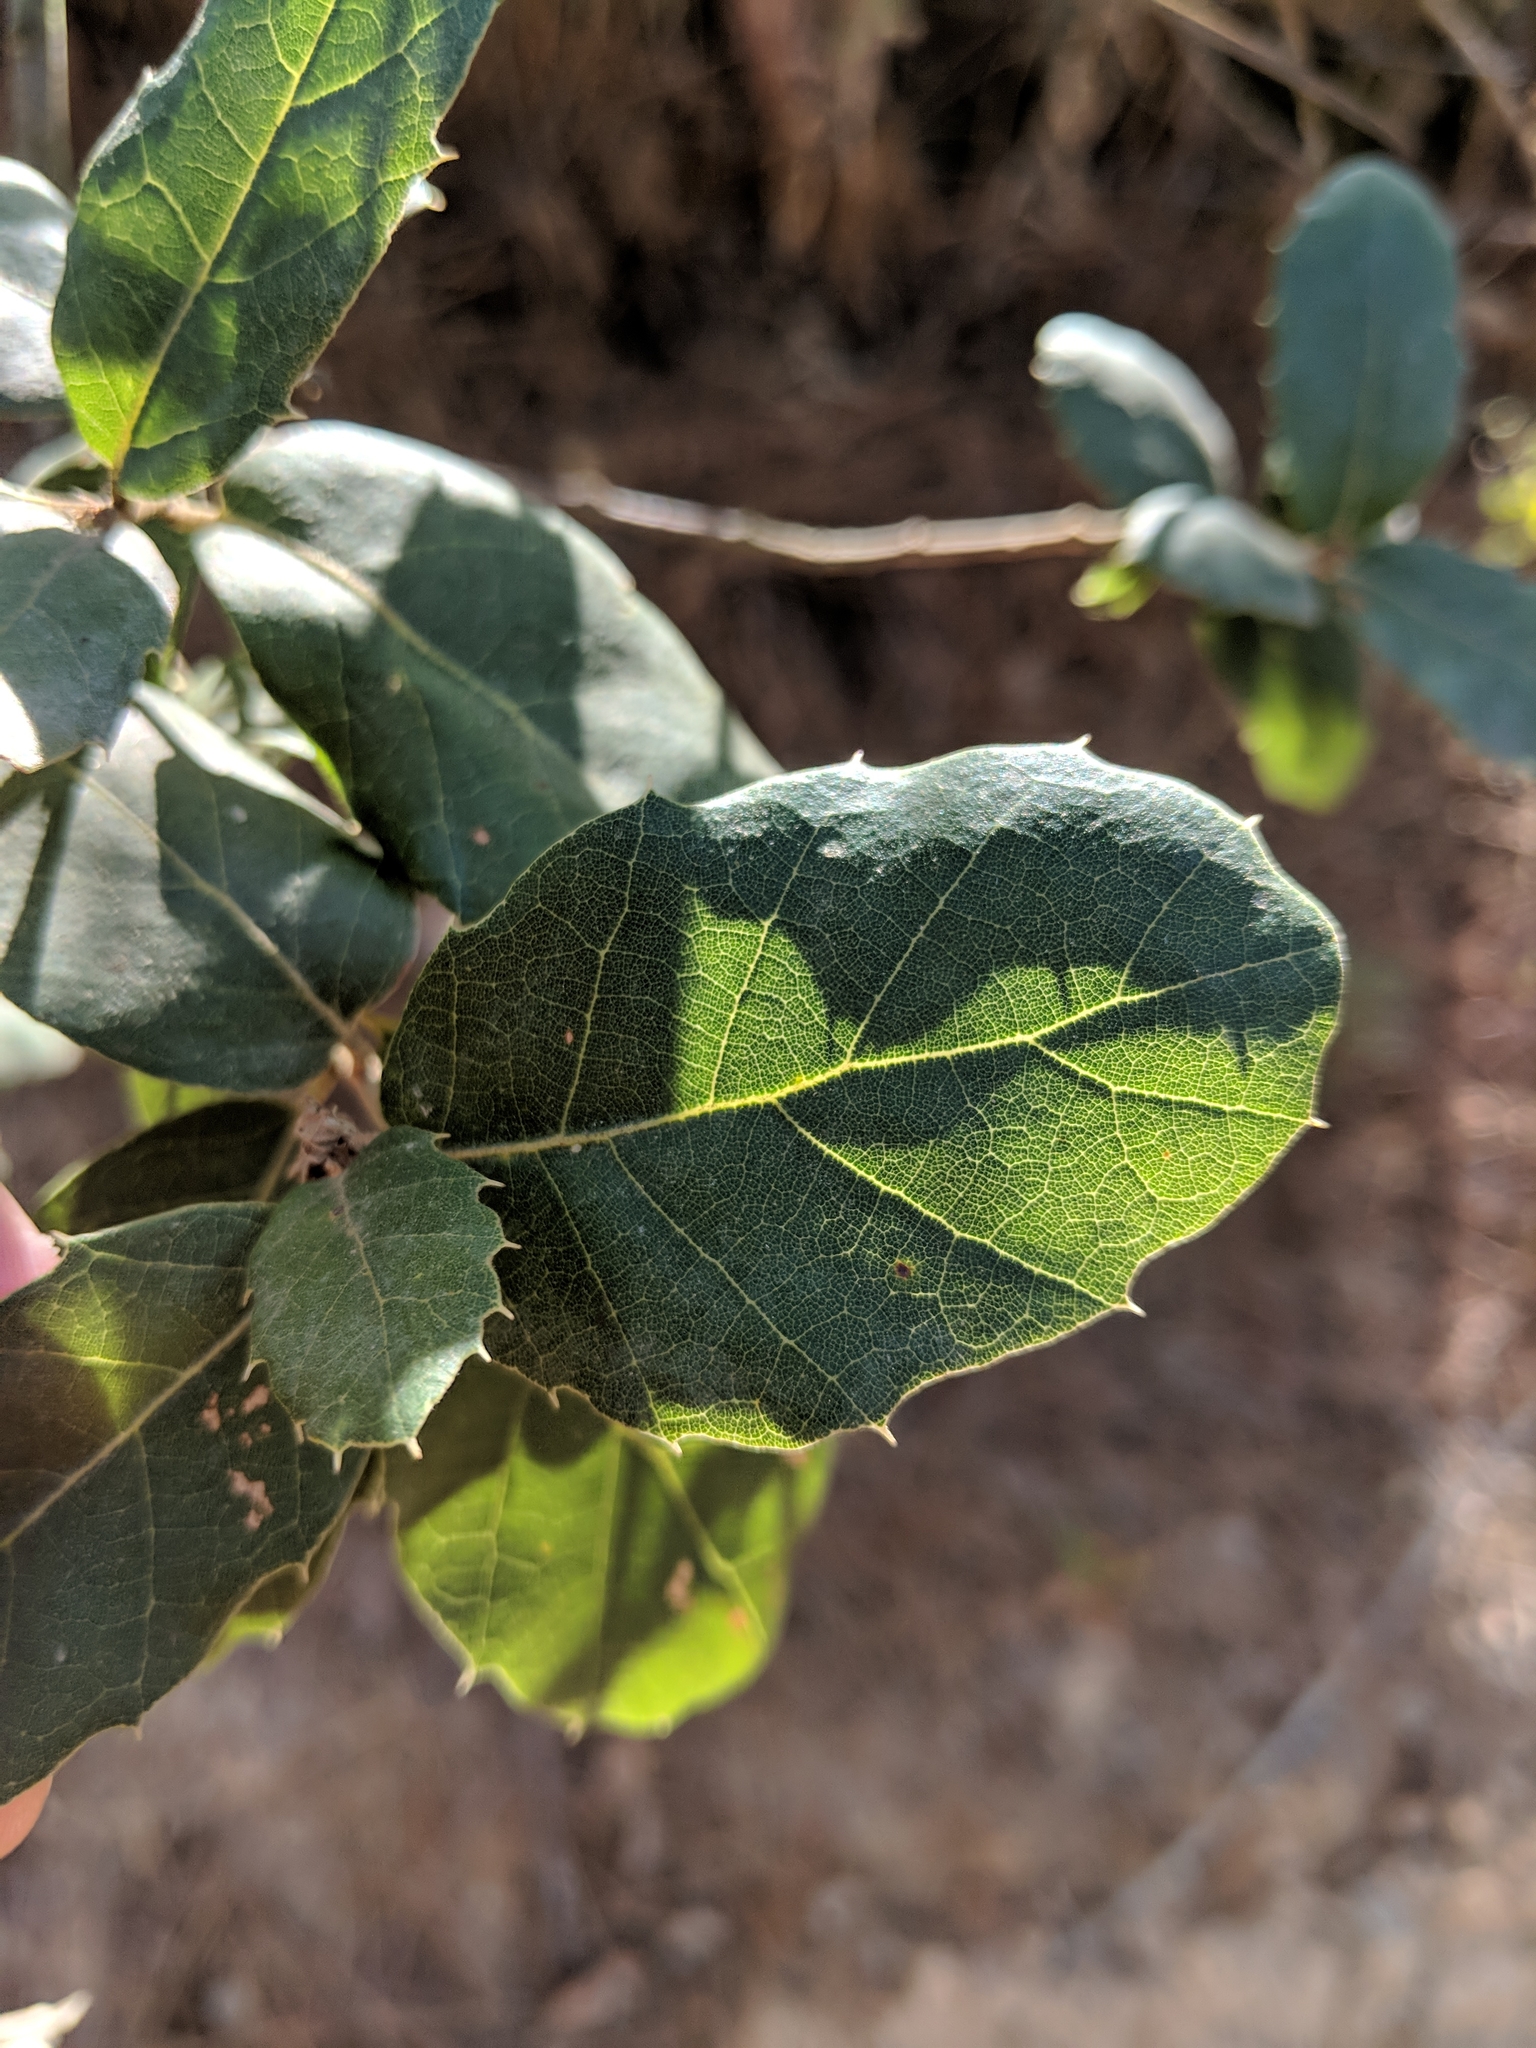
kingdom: Plantae
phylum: Tracheophyta
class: Magnoliopsida
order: Fagales
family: Fagaceae
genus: Quercus
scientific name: Quercus suber
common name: Cork oak
